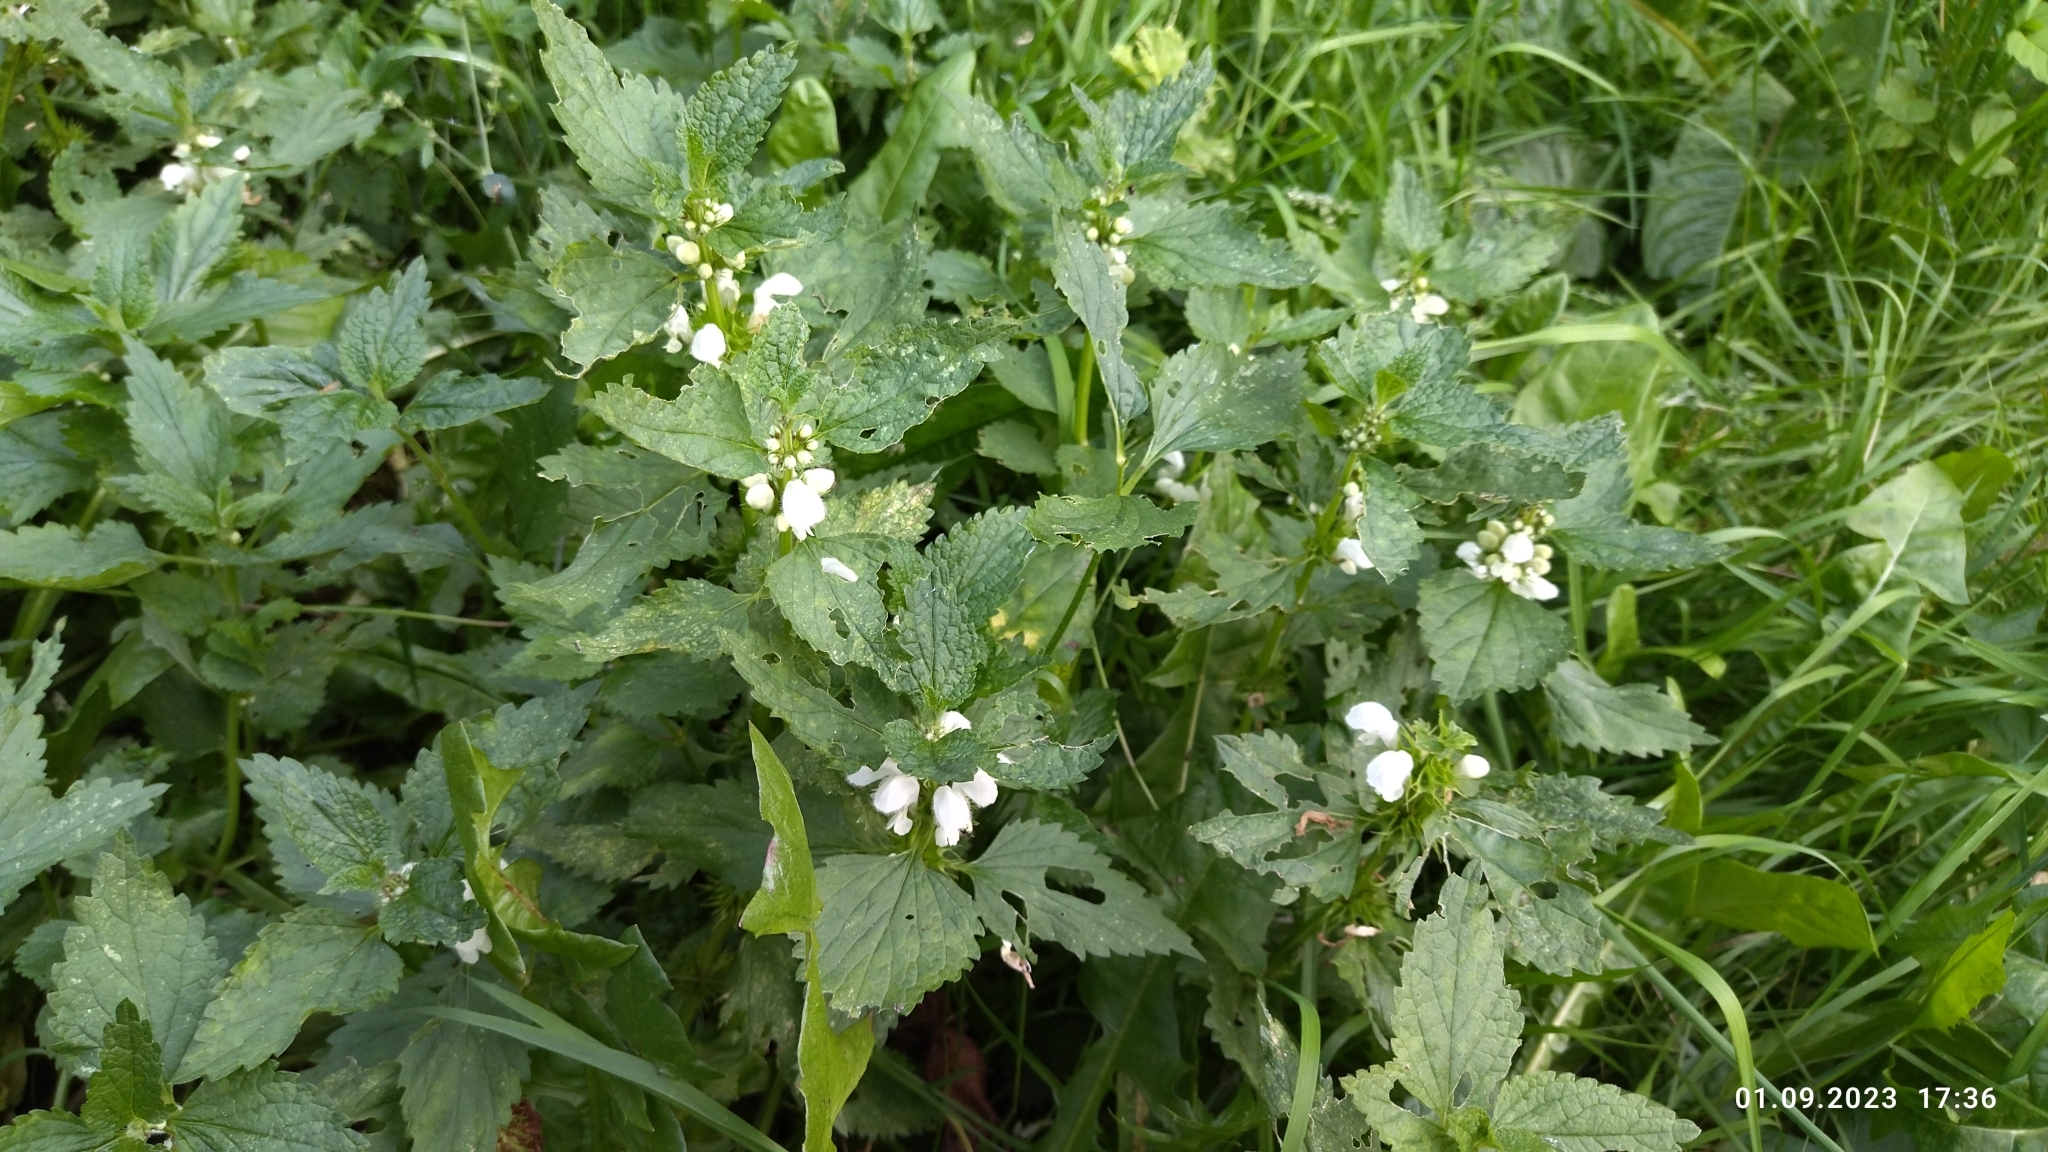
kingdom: Plantae
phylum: Tracheophyta
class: Magnoliopsida
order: Lamiales
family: Lamiaceae
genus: Lamium
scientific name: Lamium album
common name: White dead-nettle
